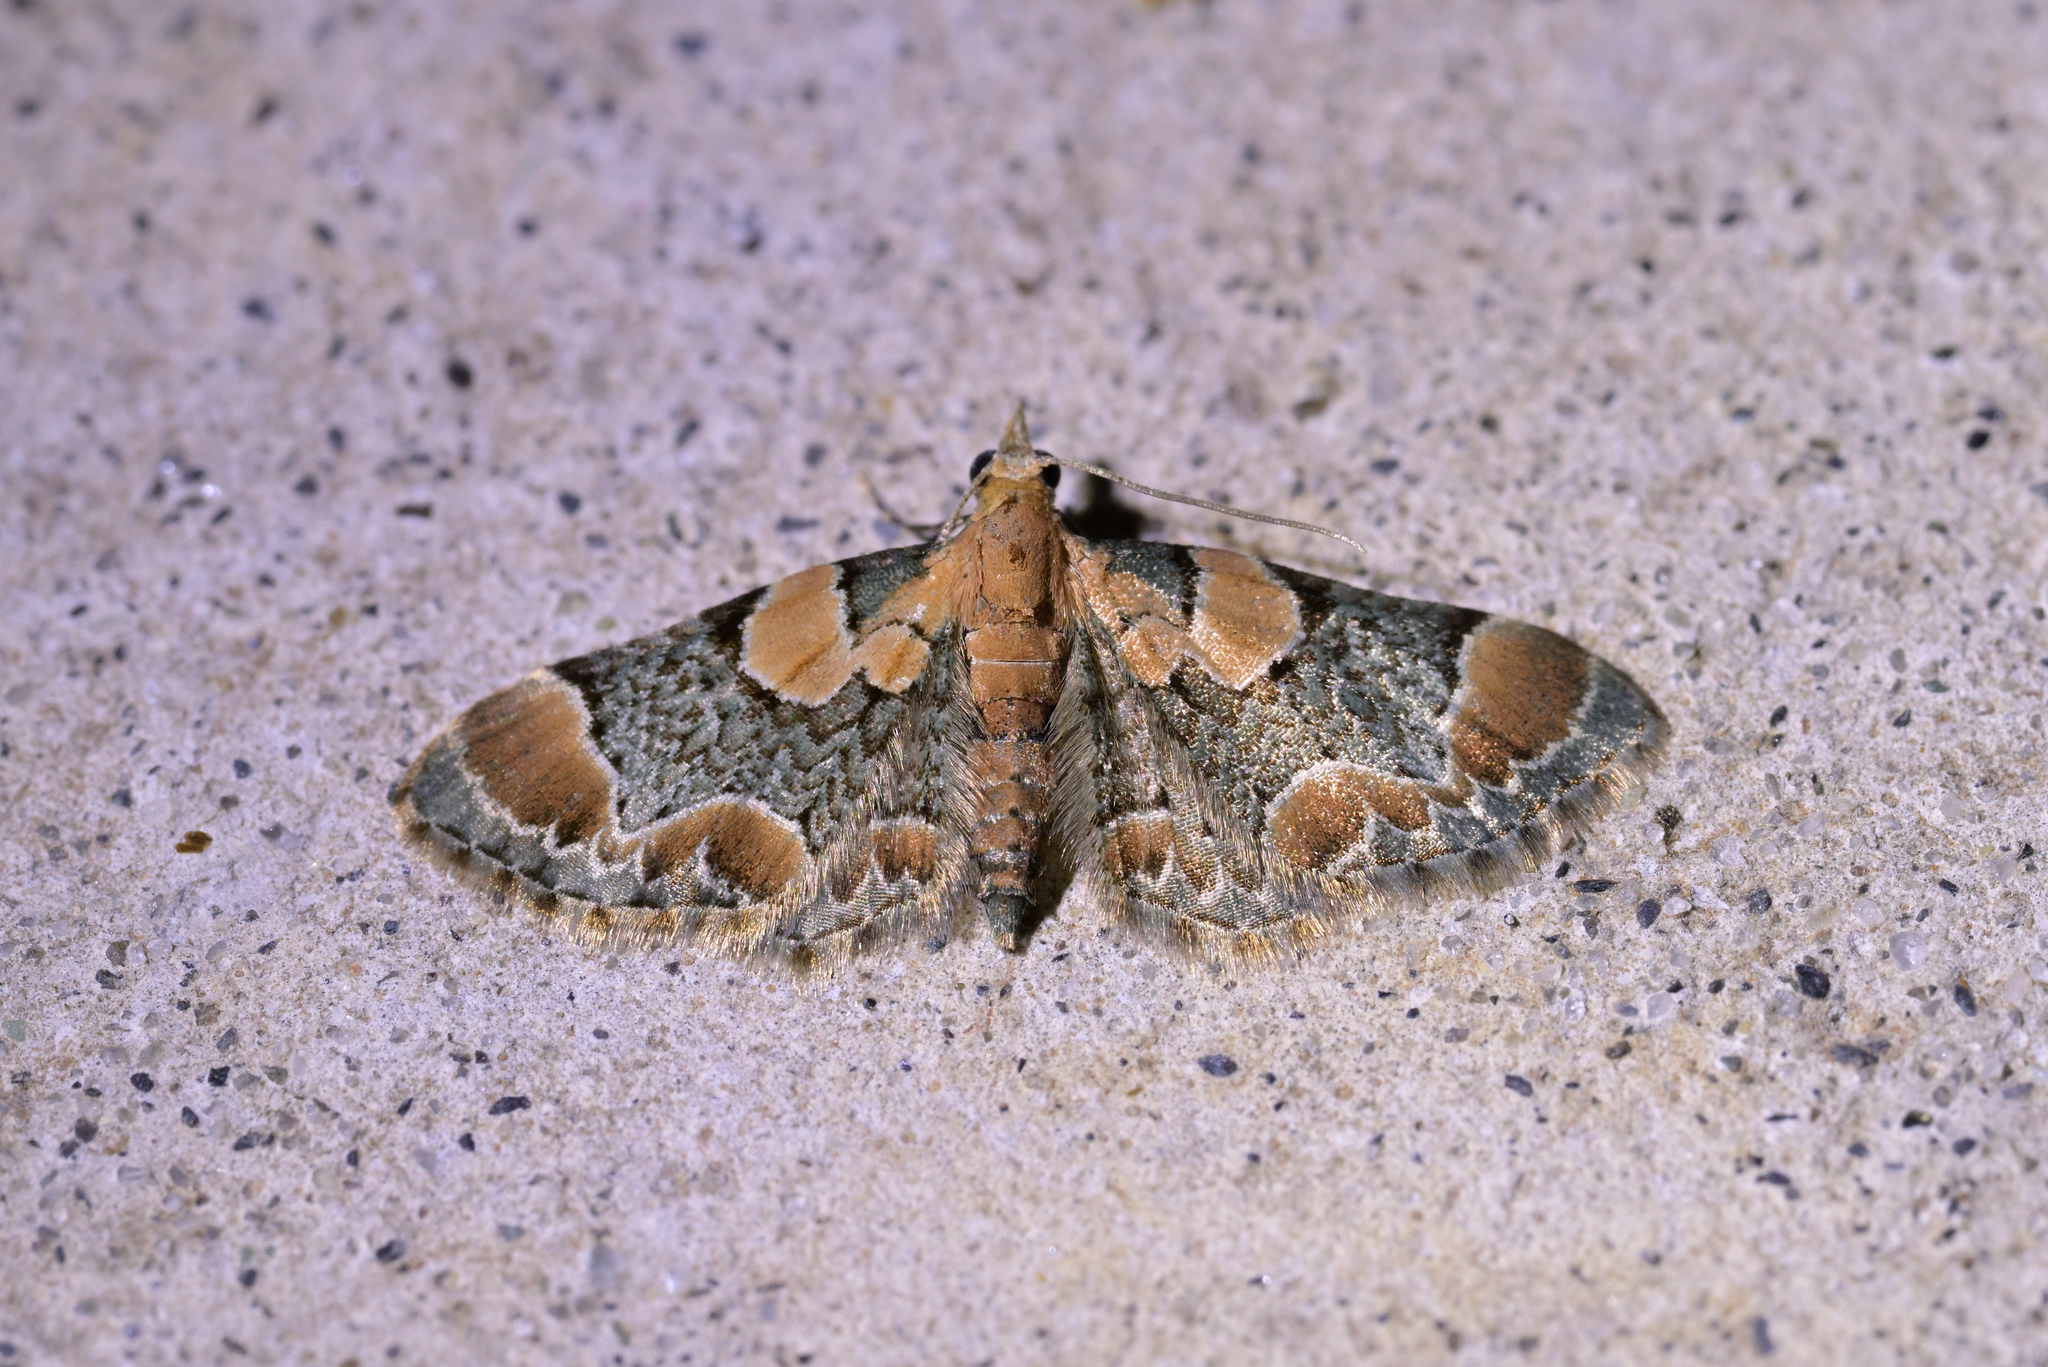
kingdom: Animalia
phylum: Arthropoda
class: Insecta
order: Lepidoptera
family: Geometridae
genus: Chloroclystis
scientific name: Chloroclystis
